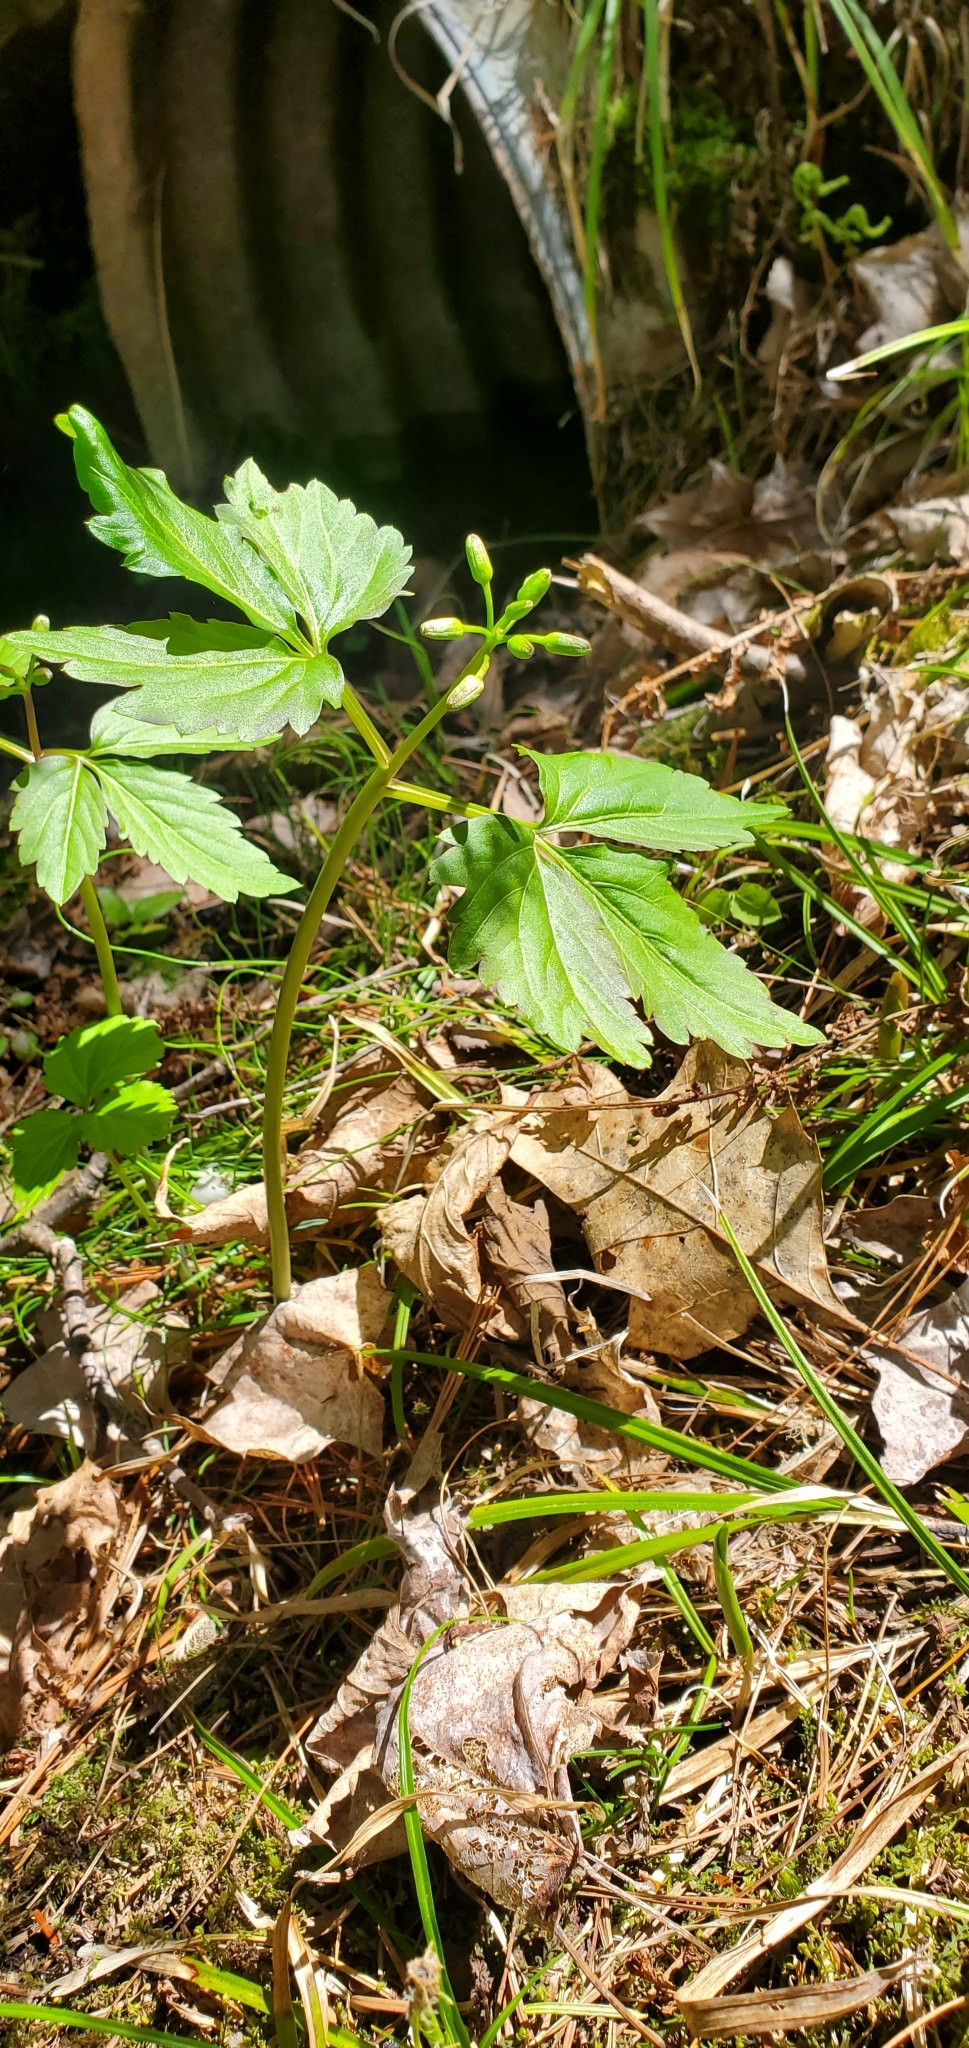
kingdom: Plantae
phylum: Tracheophyta
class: Magnoliopsida
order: Brassicales
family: Brassicaceae
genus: Cardamine
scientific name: Cardamine diphylla
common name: Broad-leaved toothwort
